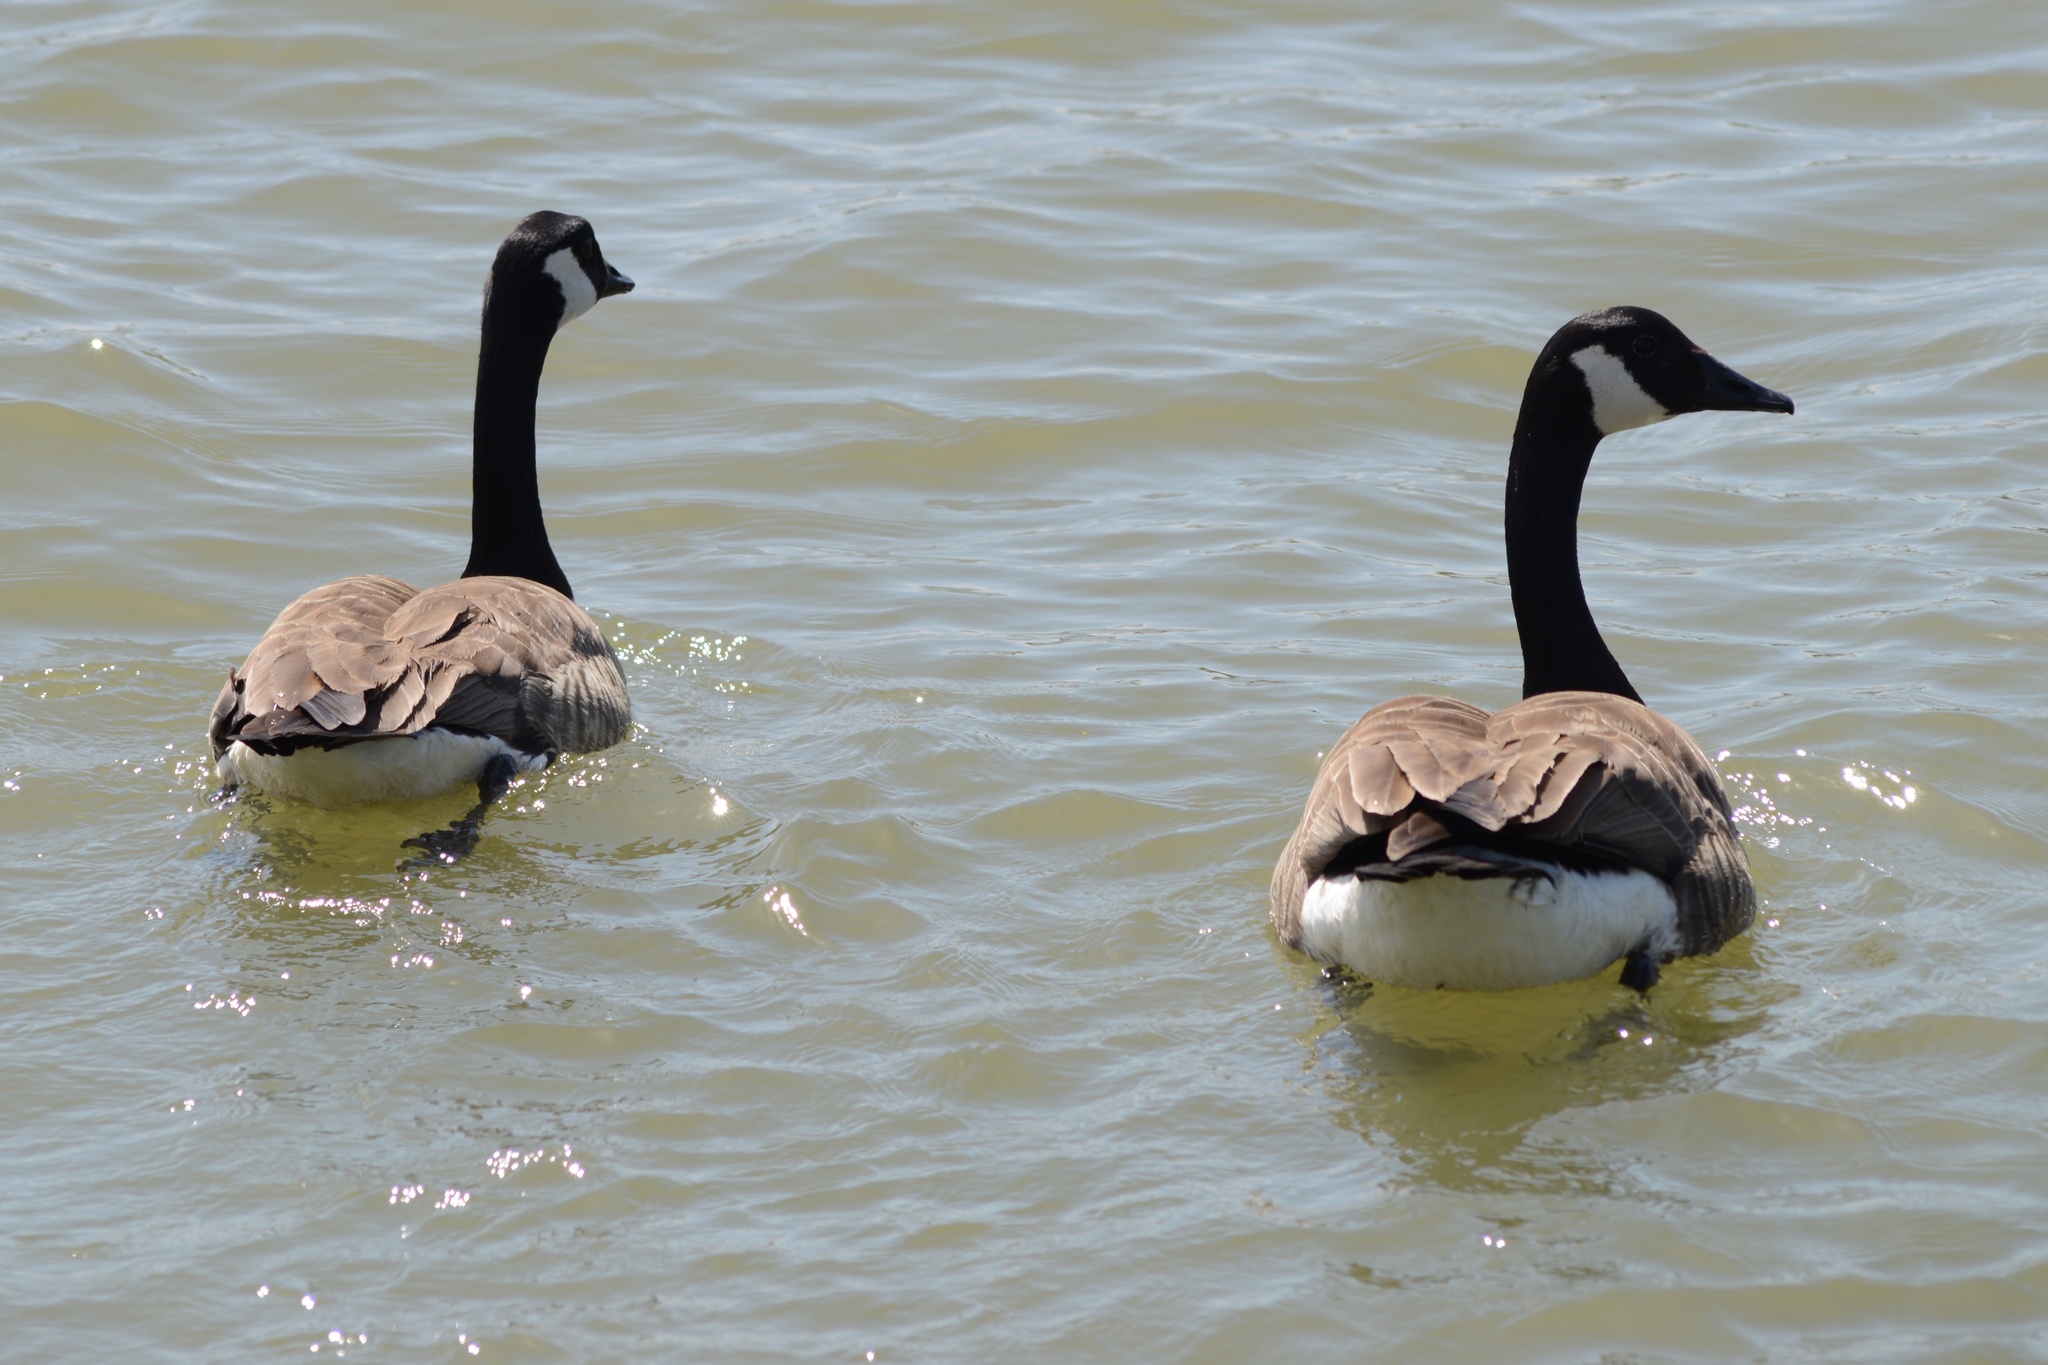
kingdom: Animalia
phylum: Chordata
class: Aves
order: Anseriformes
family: Anatidae
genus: Branta
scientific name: Branta canadensis
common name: Canada goose
